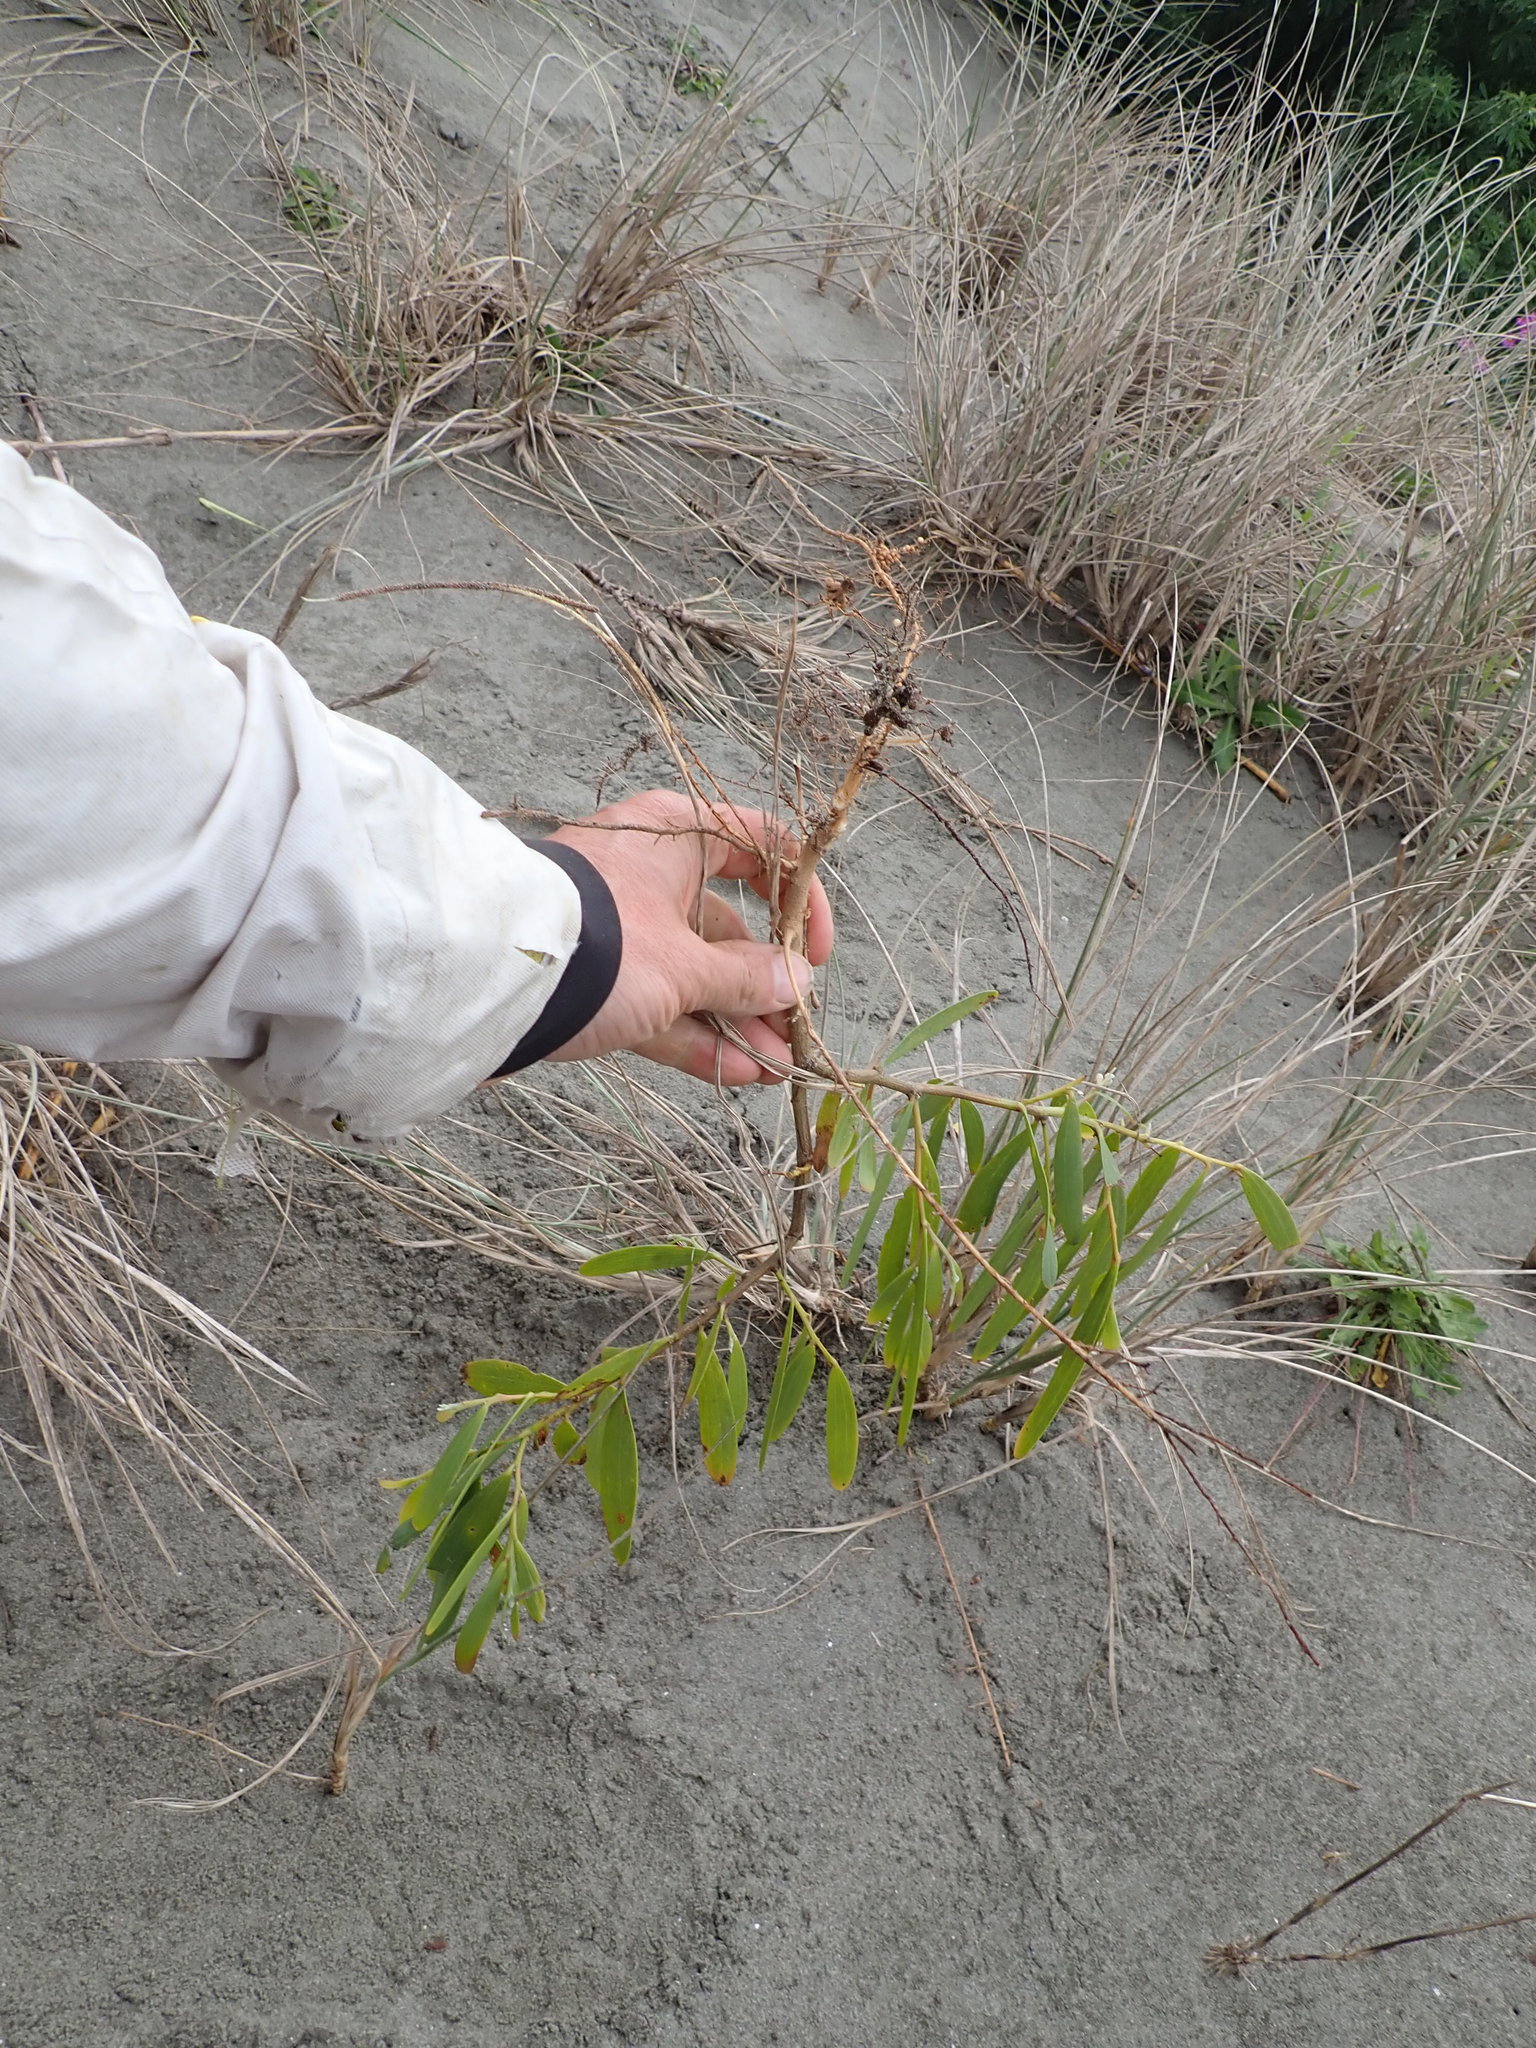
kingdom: Plantae
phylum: Tracheophyta
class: Magnoliopsida
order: Fabales
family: Fabaceae
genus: Acacia
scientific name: Acacia longifolia
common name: Sydney golden wattle
